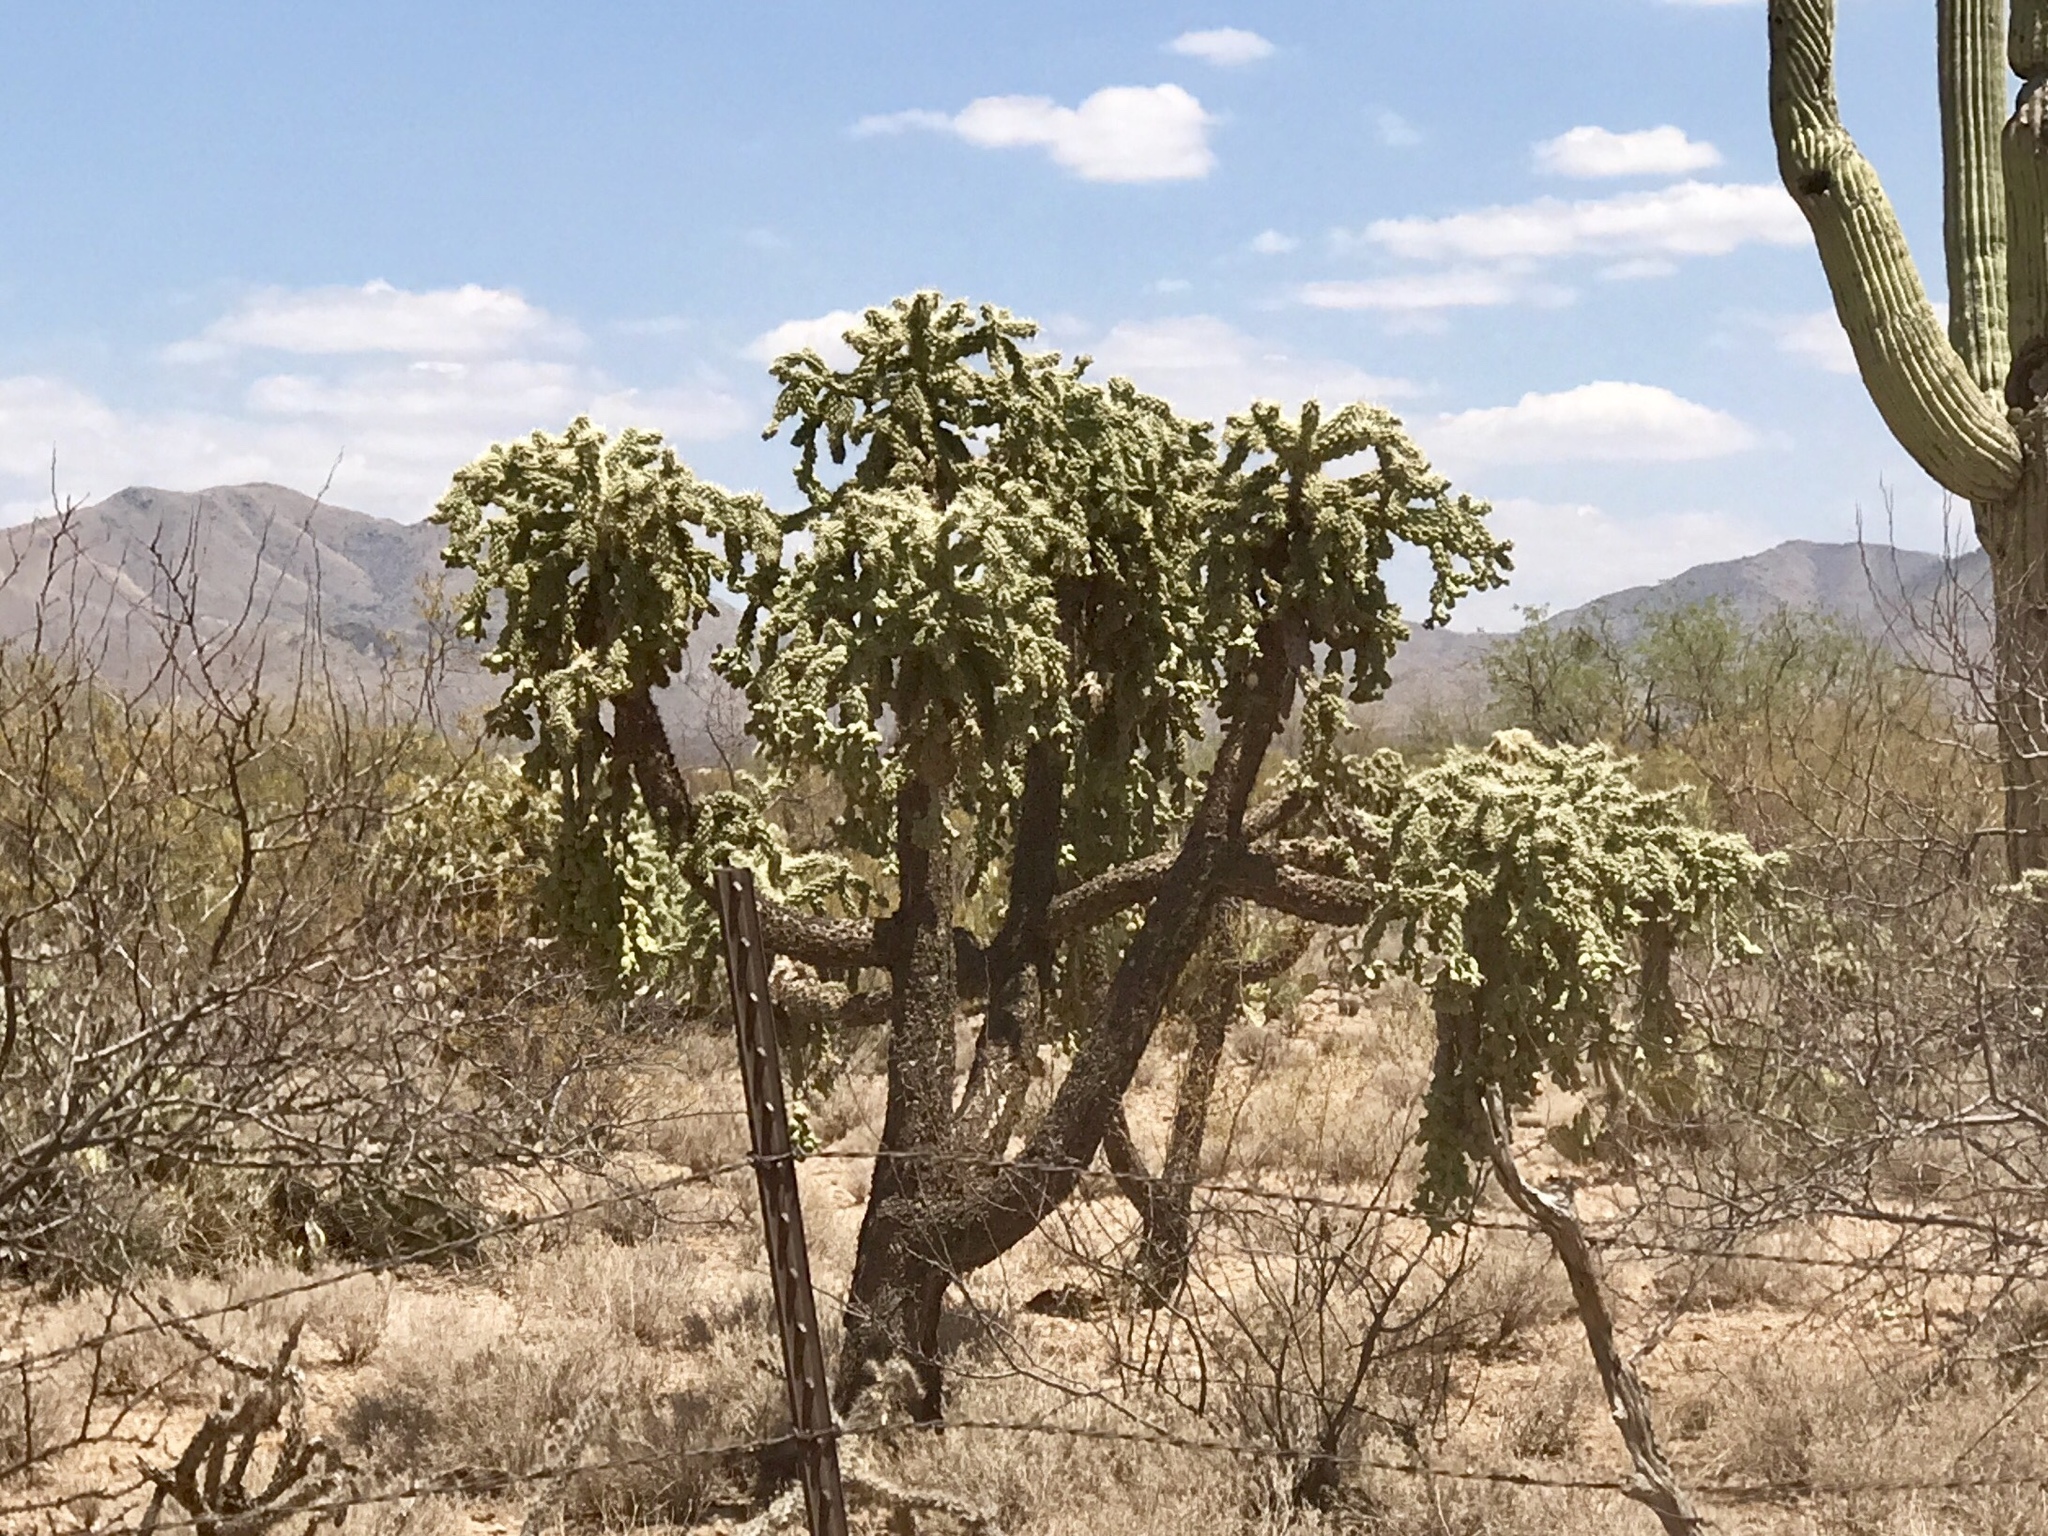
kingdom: Plantae
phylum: Tracheophyta
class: Magnoliopsida
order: Caryophyllales
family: Cactaceae
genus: Cylindropuntia
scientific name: Cylindropuntia fulgida
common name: Jumping cholla
